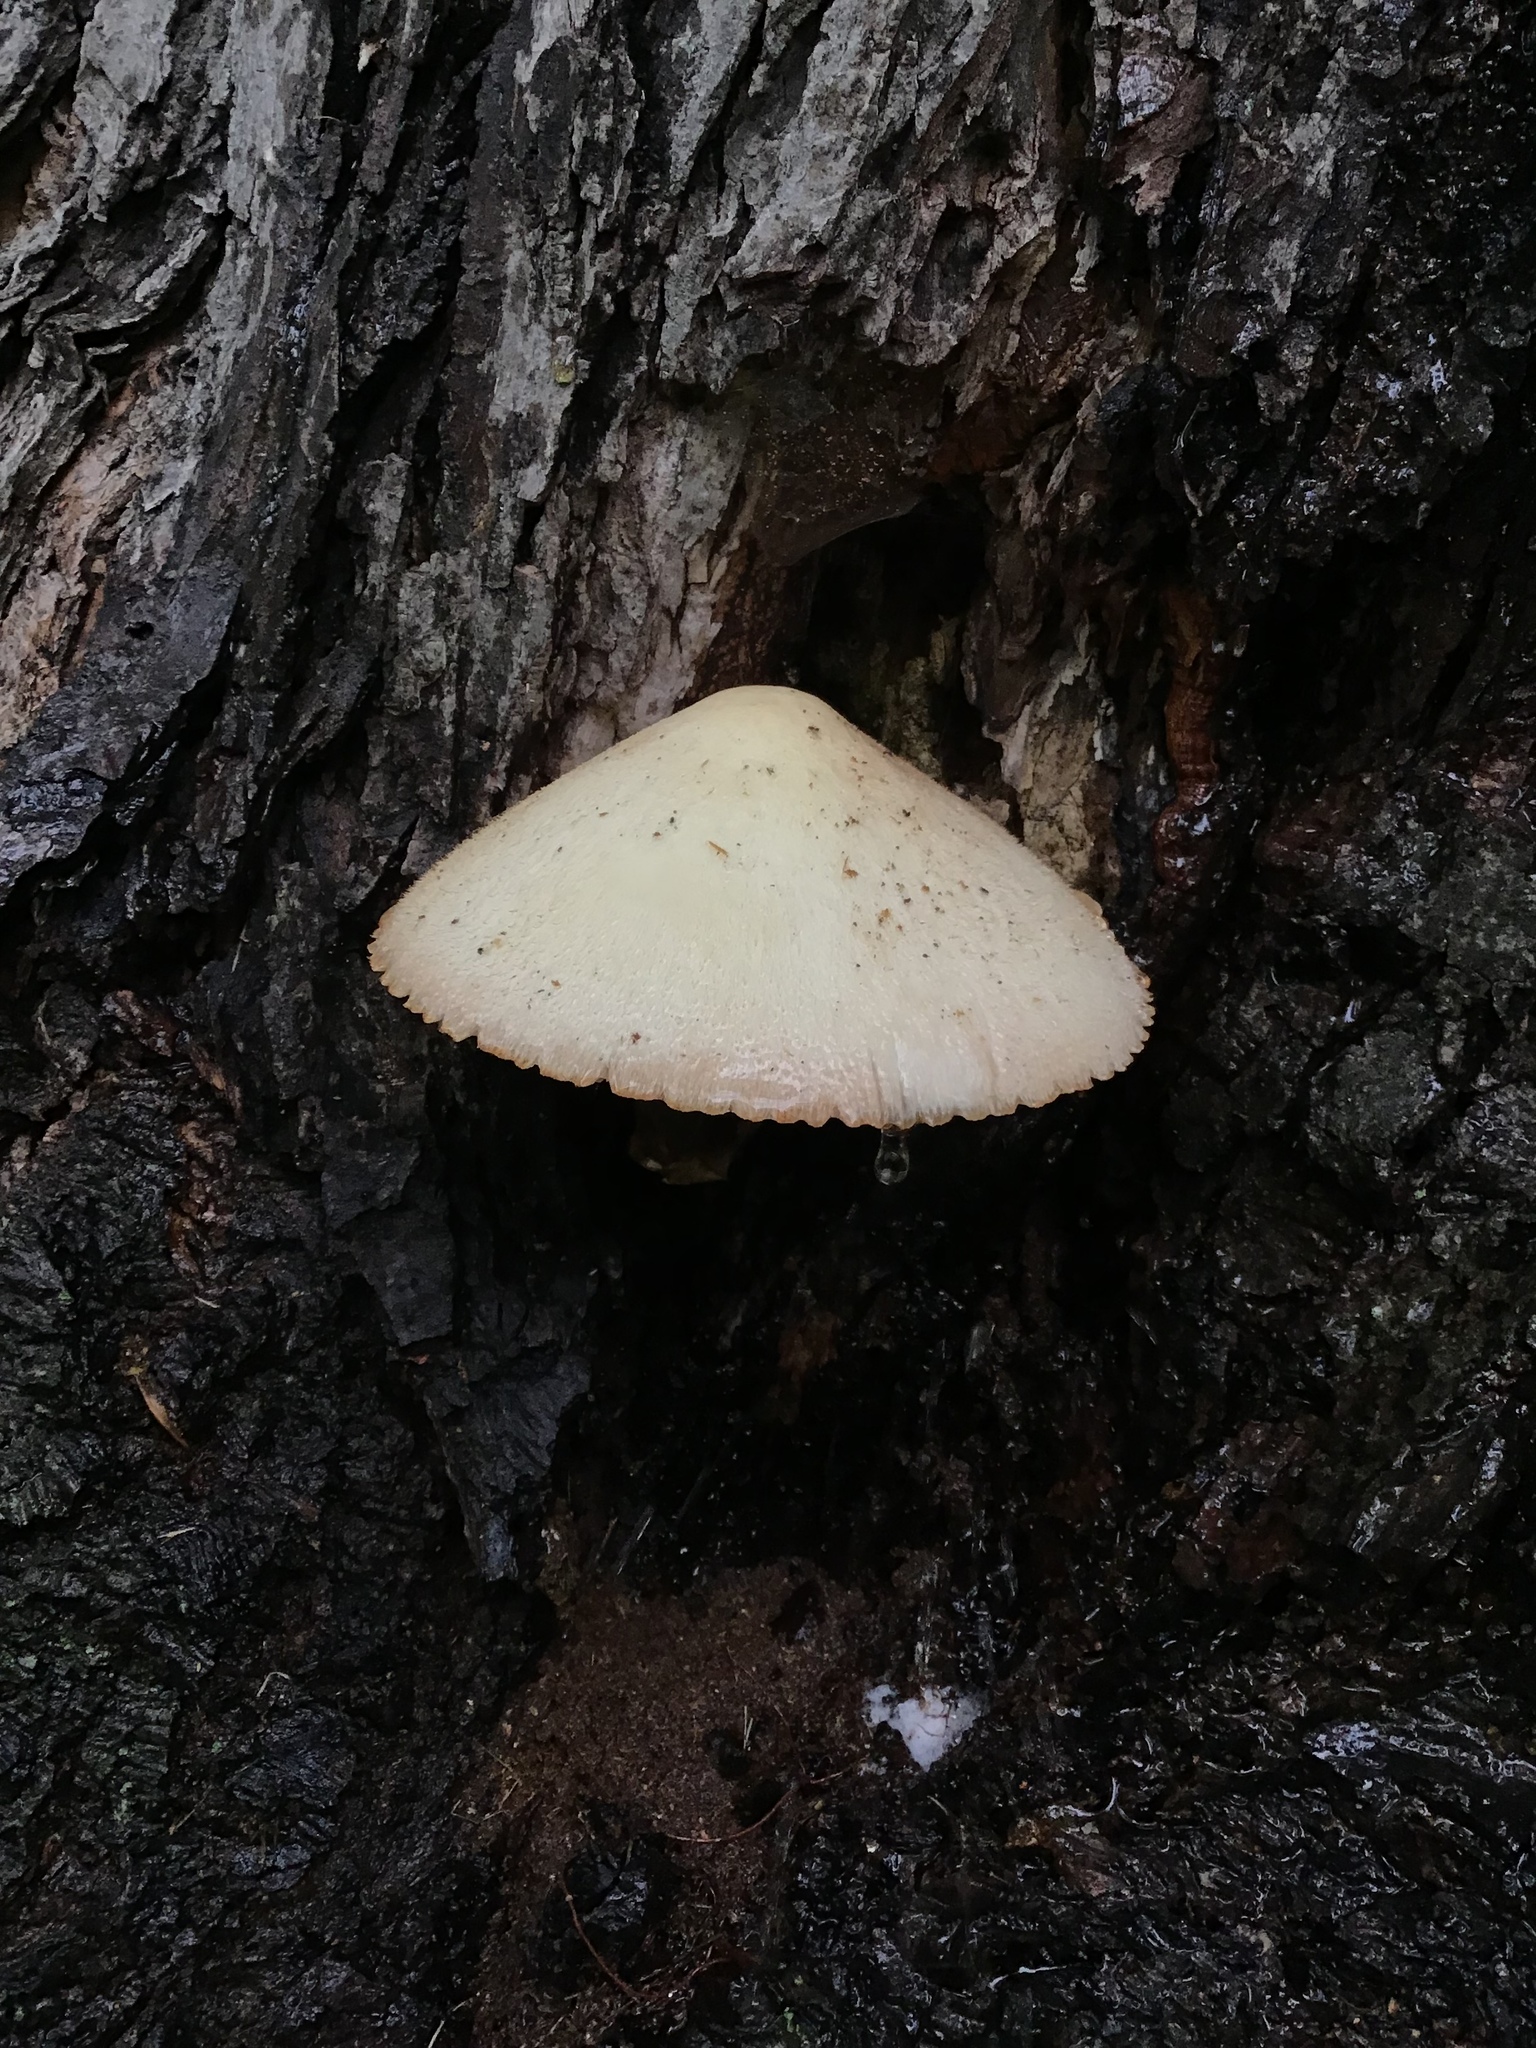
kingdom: Fungi
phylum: Basidiomycota
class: Agaricomycetes
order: Agaricales
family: Pluteaceae
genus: Volvariella
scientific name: Volvariella bombycina
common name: Silky rosegill
